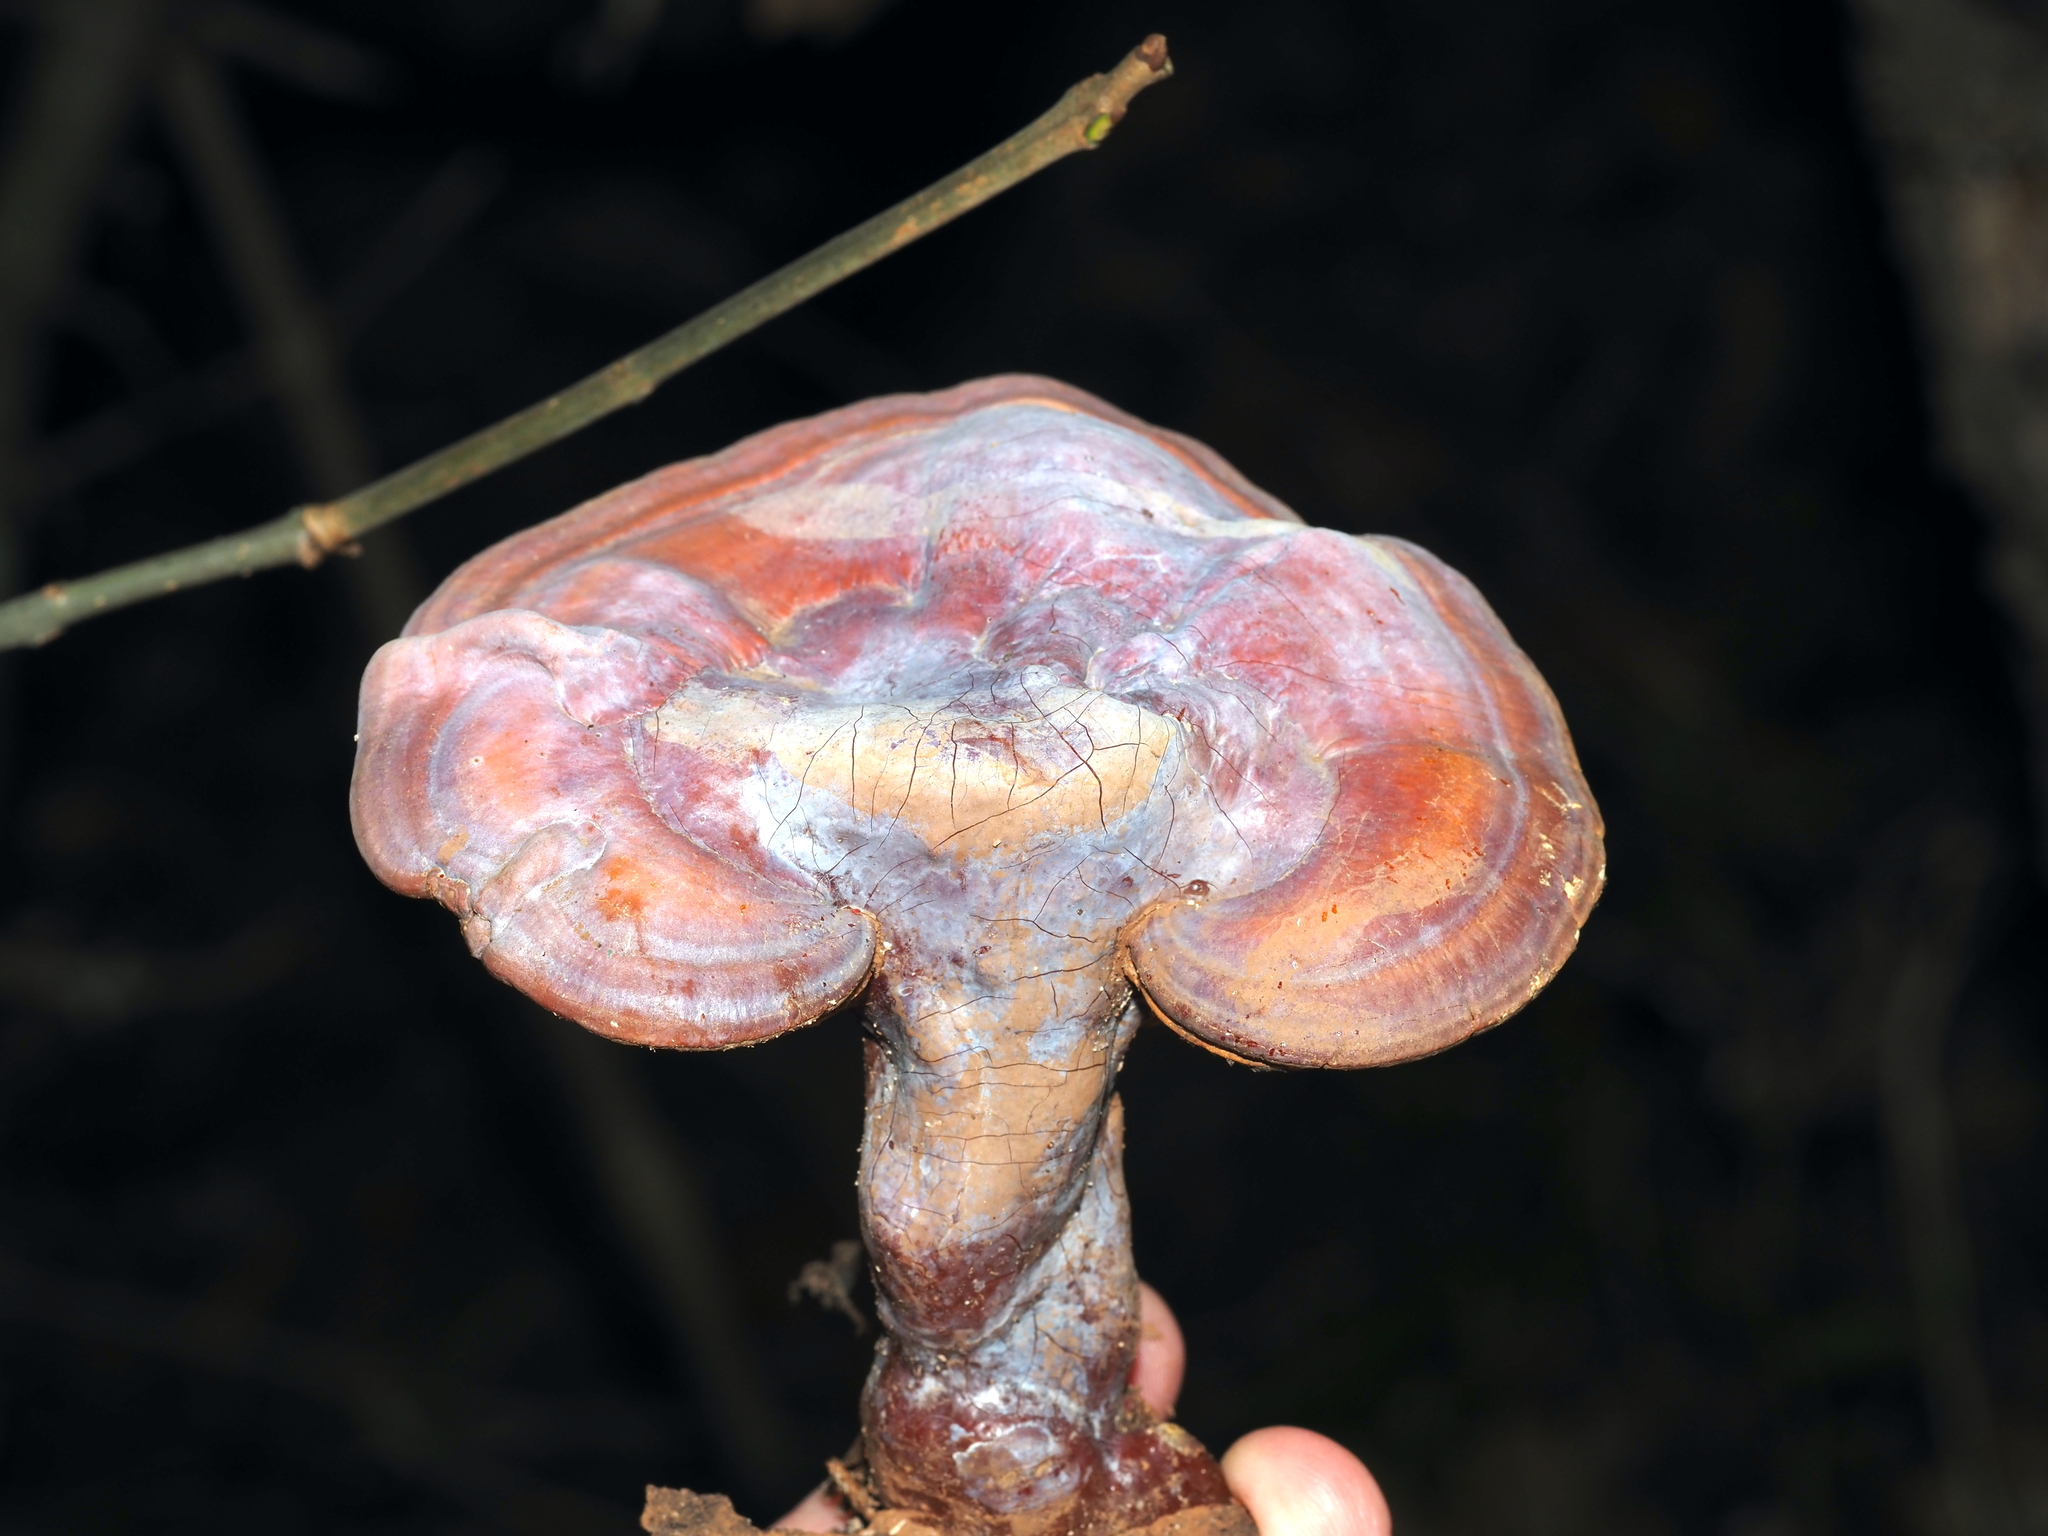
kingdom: Fungi
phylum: Basidiomycota
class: Agaricomycetes
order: Polyporales
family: Polyporaceae
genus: Ganoderma
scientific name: Ganoderma curtisii
